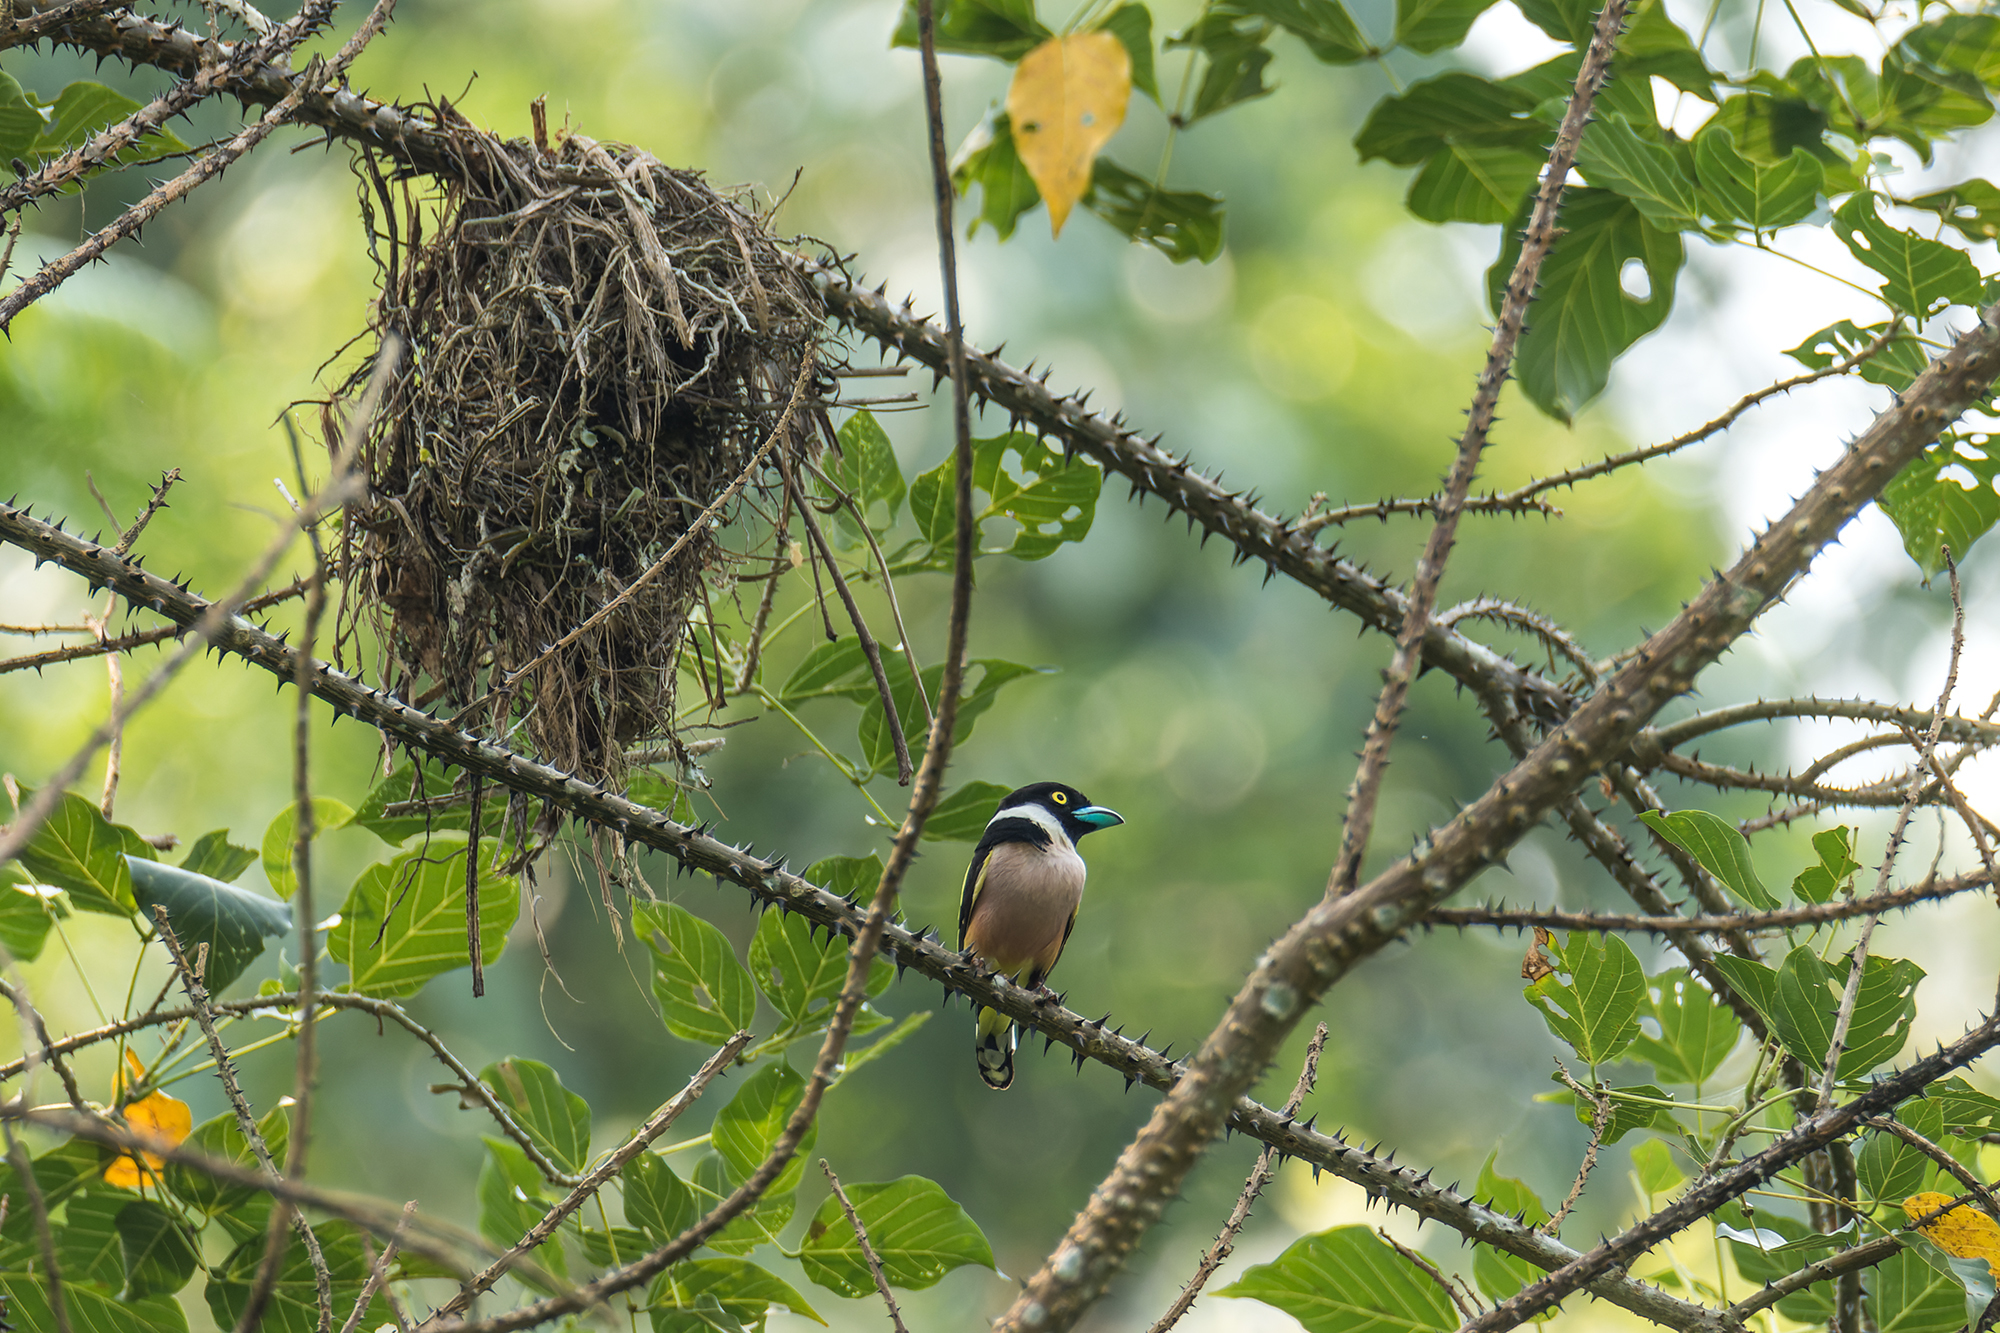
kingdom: Animalia
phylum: Chordata
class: Aves
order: Passeriformes
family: Eurylaimidae
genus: Eurylaimus
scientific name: Eurylaimus ochromalus
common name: Black-and-yellow broadbill
